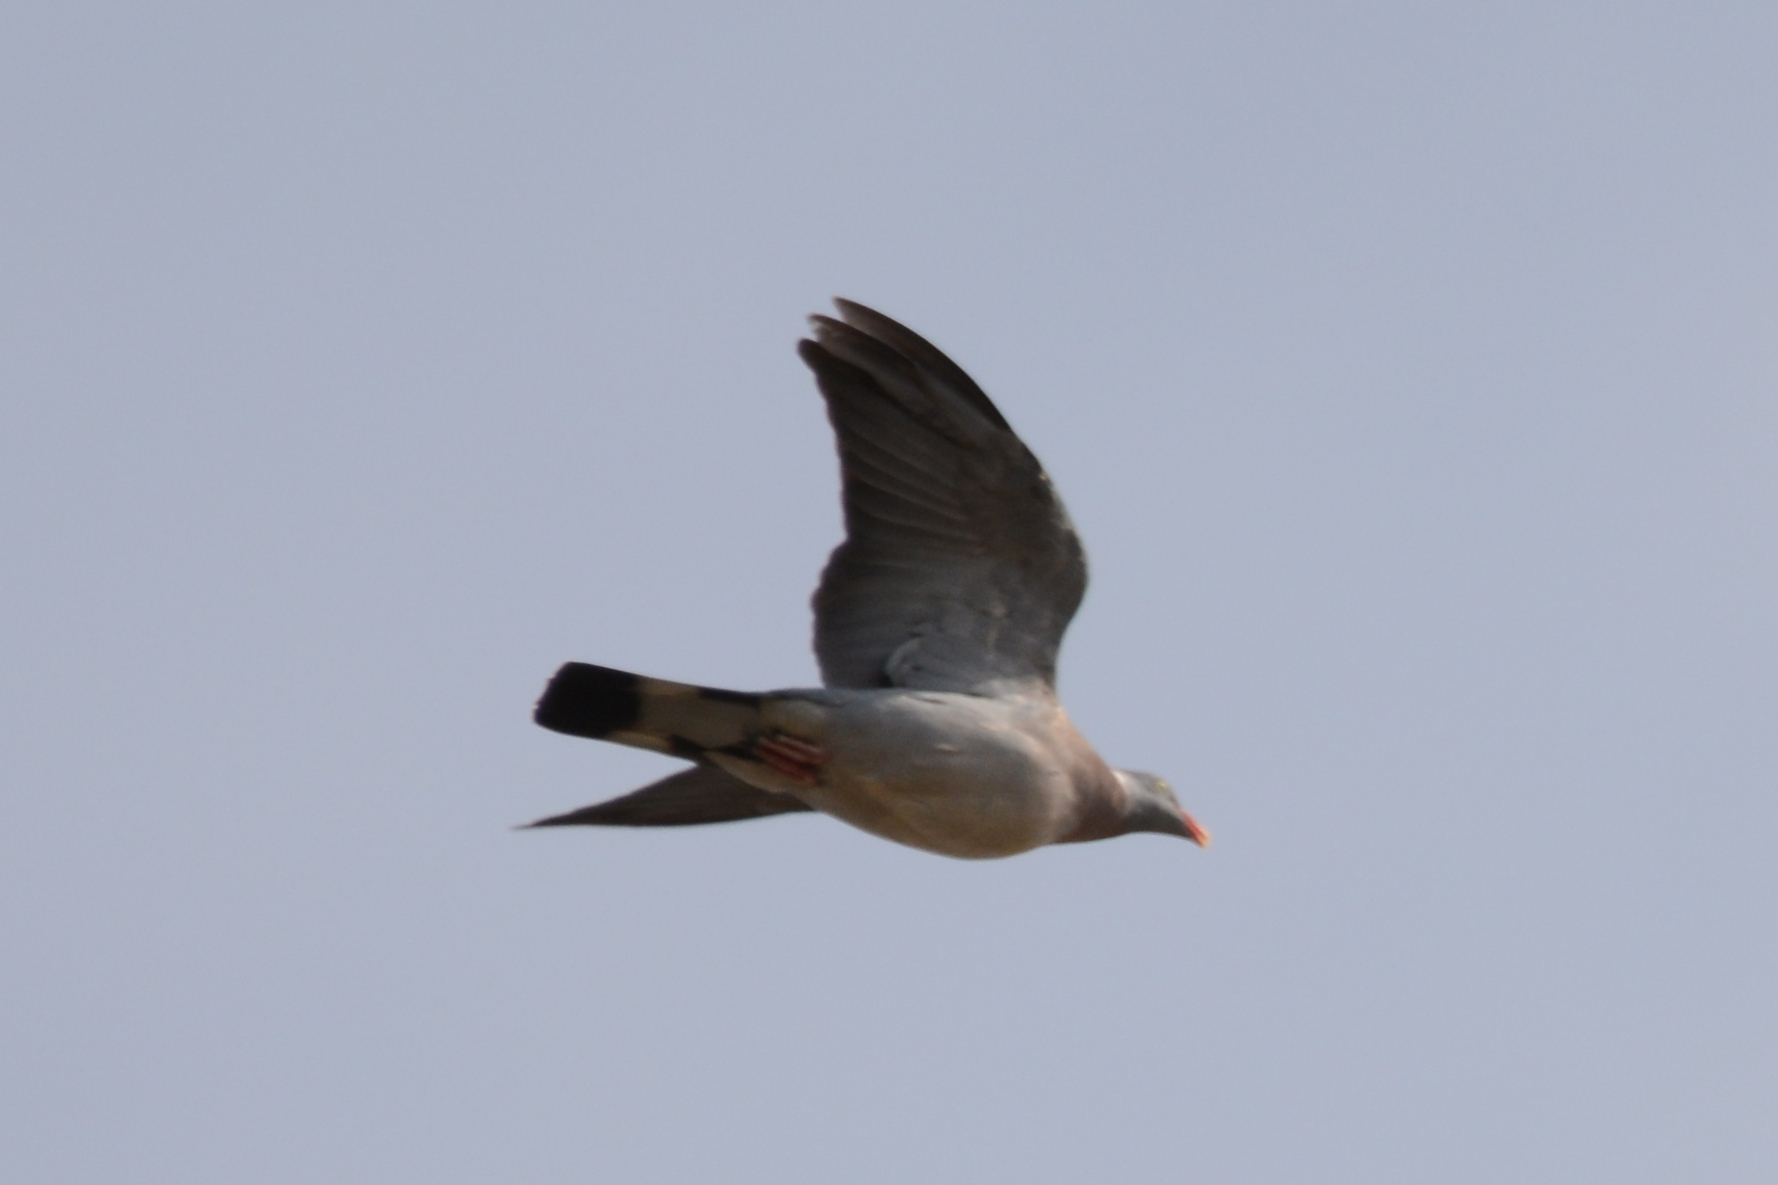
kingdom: Animalia
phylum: Chordata
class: Aves
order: Columbiformes
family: Columbidae
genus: Columba
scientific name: Columba palumbus
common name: Common wood pigeon
